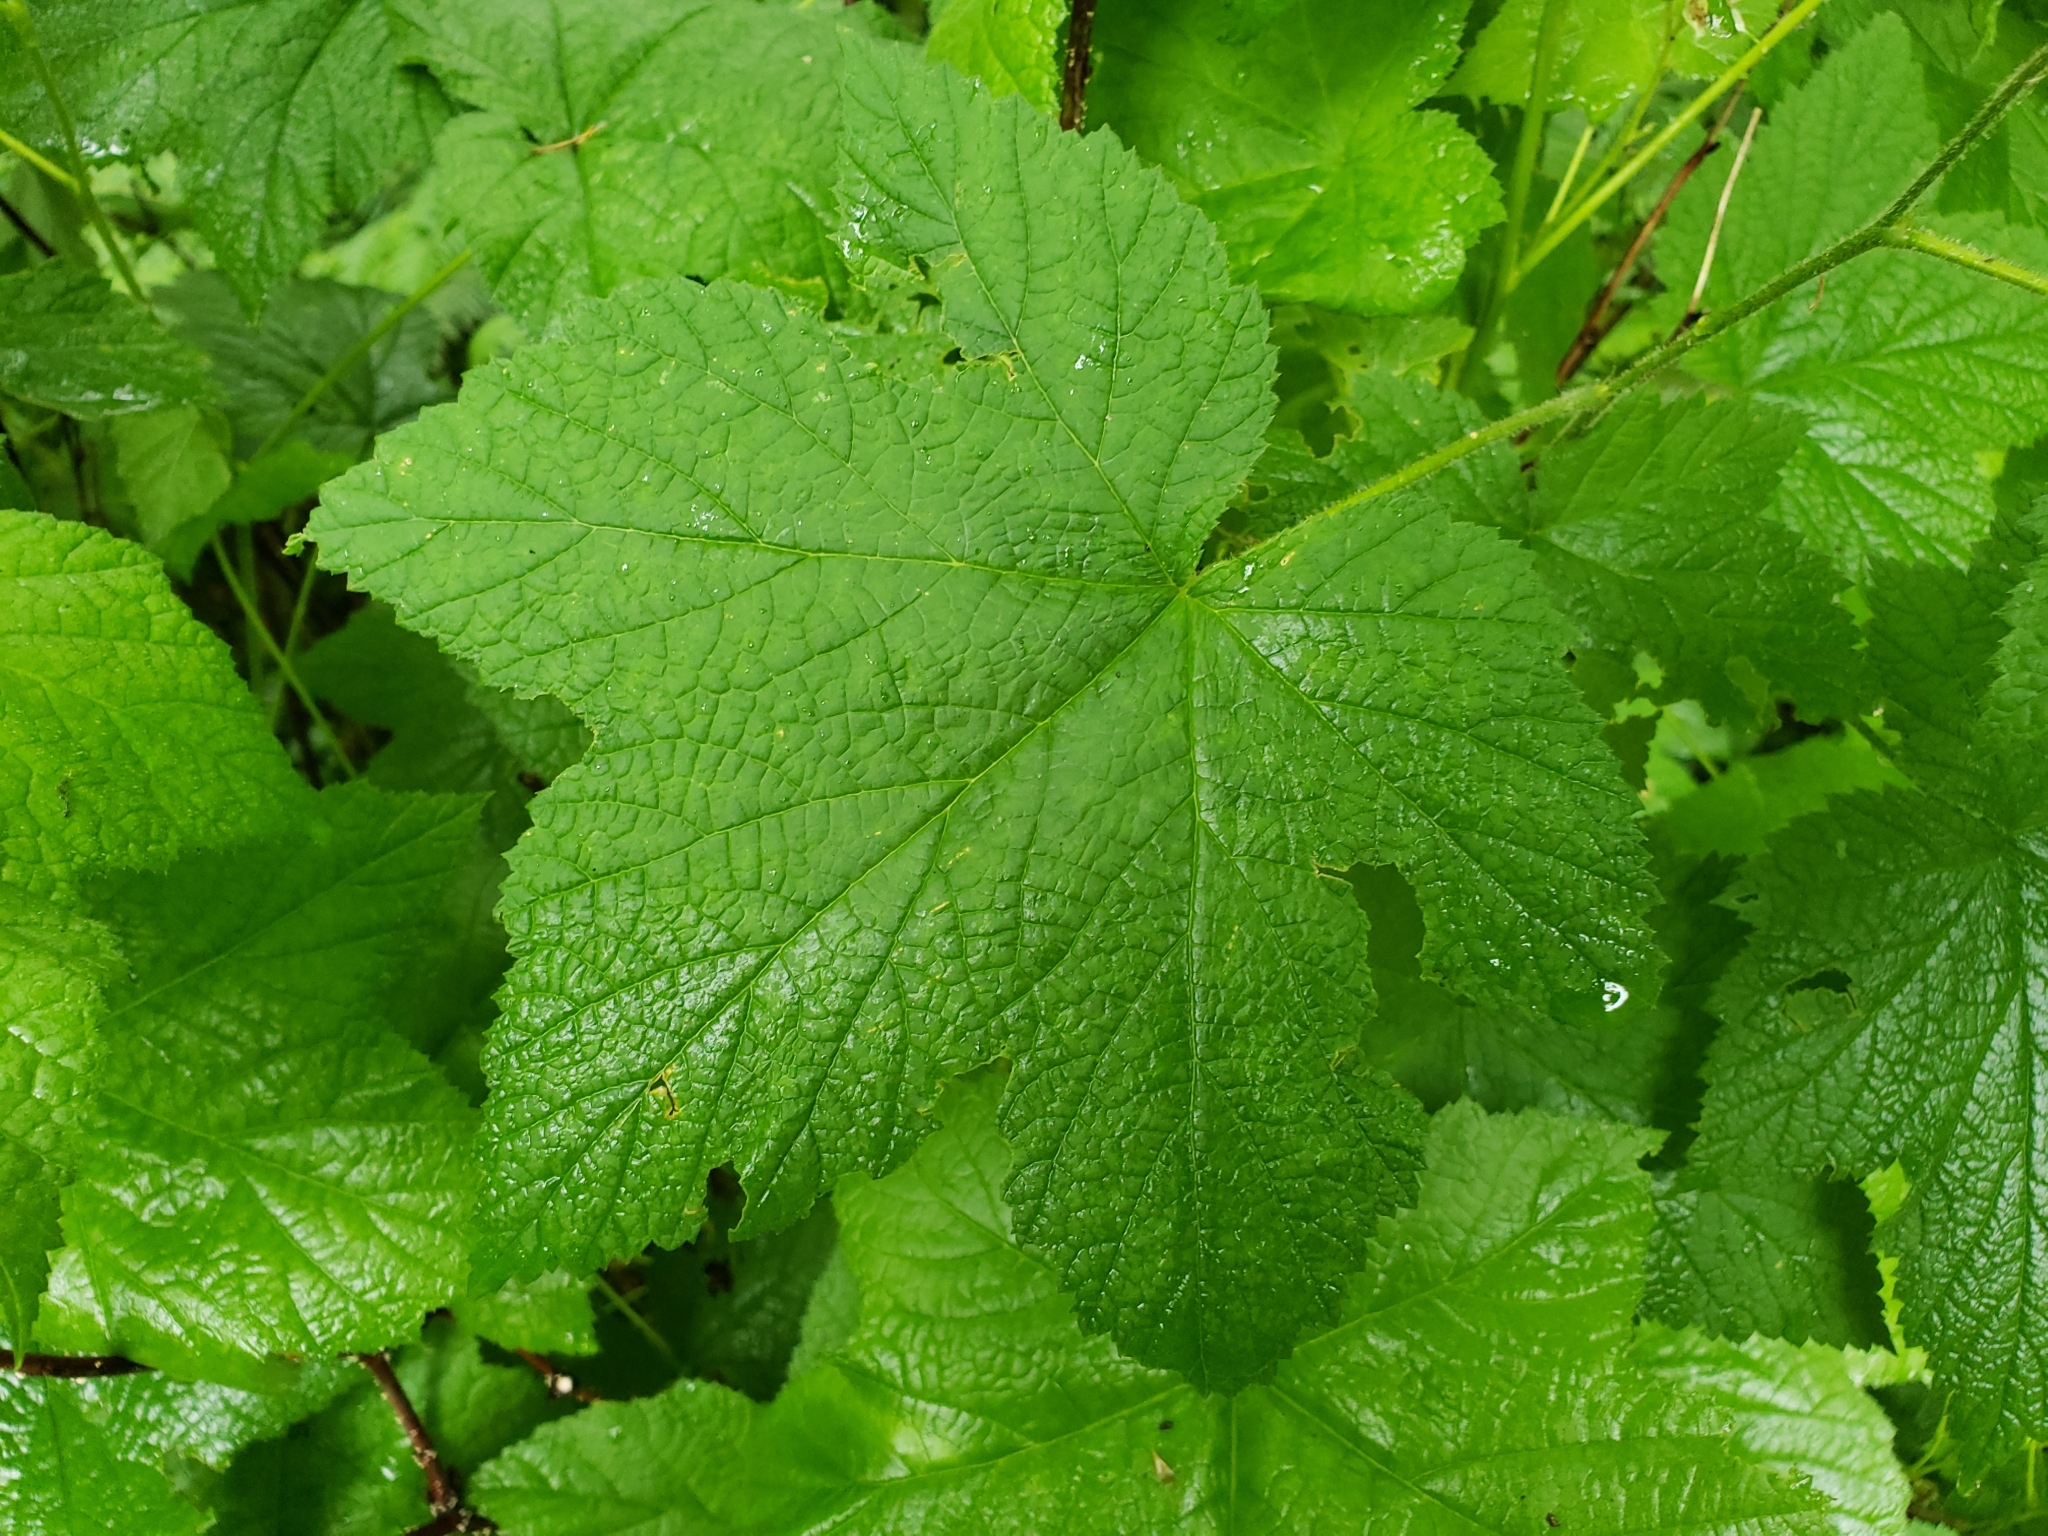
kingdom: Plantae
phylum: Tracheophyta
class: Magnoliopsida
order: Rosales
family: Rosaceae
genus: Rubus
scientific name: Rubus parviflorus
